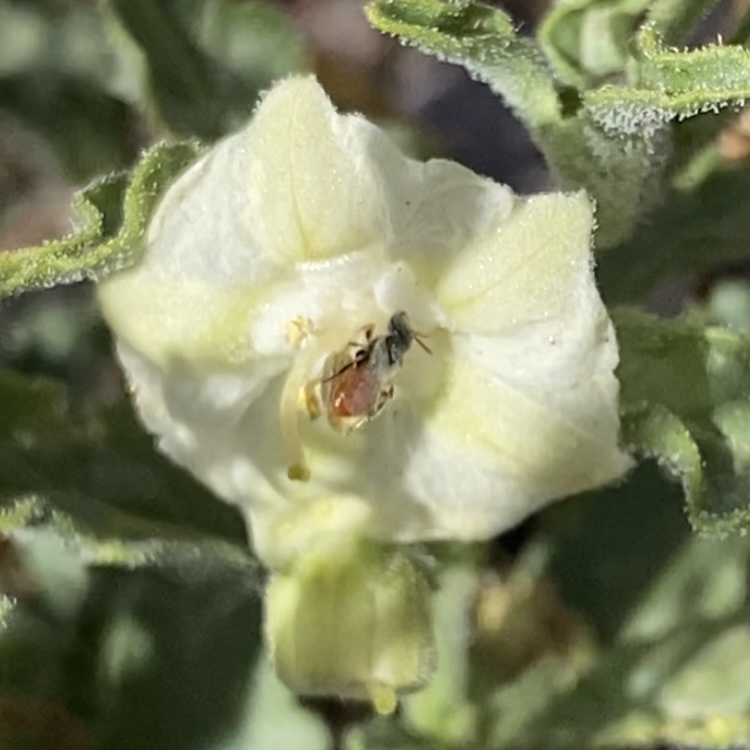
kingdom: Animalia
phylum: Arthropoda
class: Insecta
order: Hymenoptera
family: Andrenidae
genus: Perdita
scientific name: Perdita chamaesarachae
